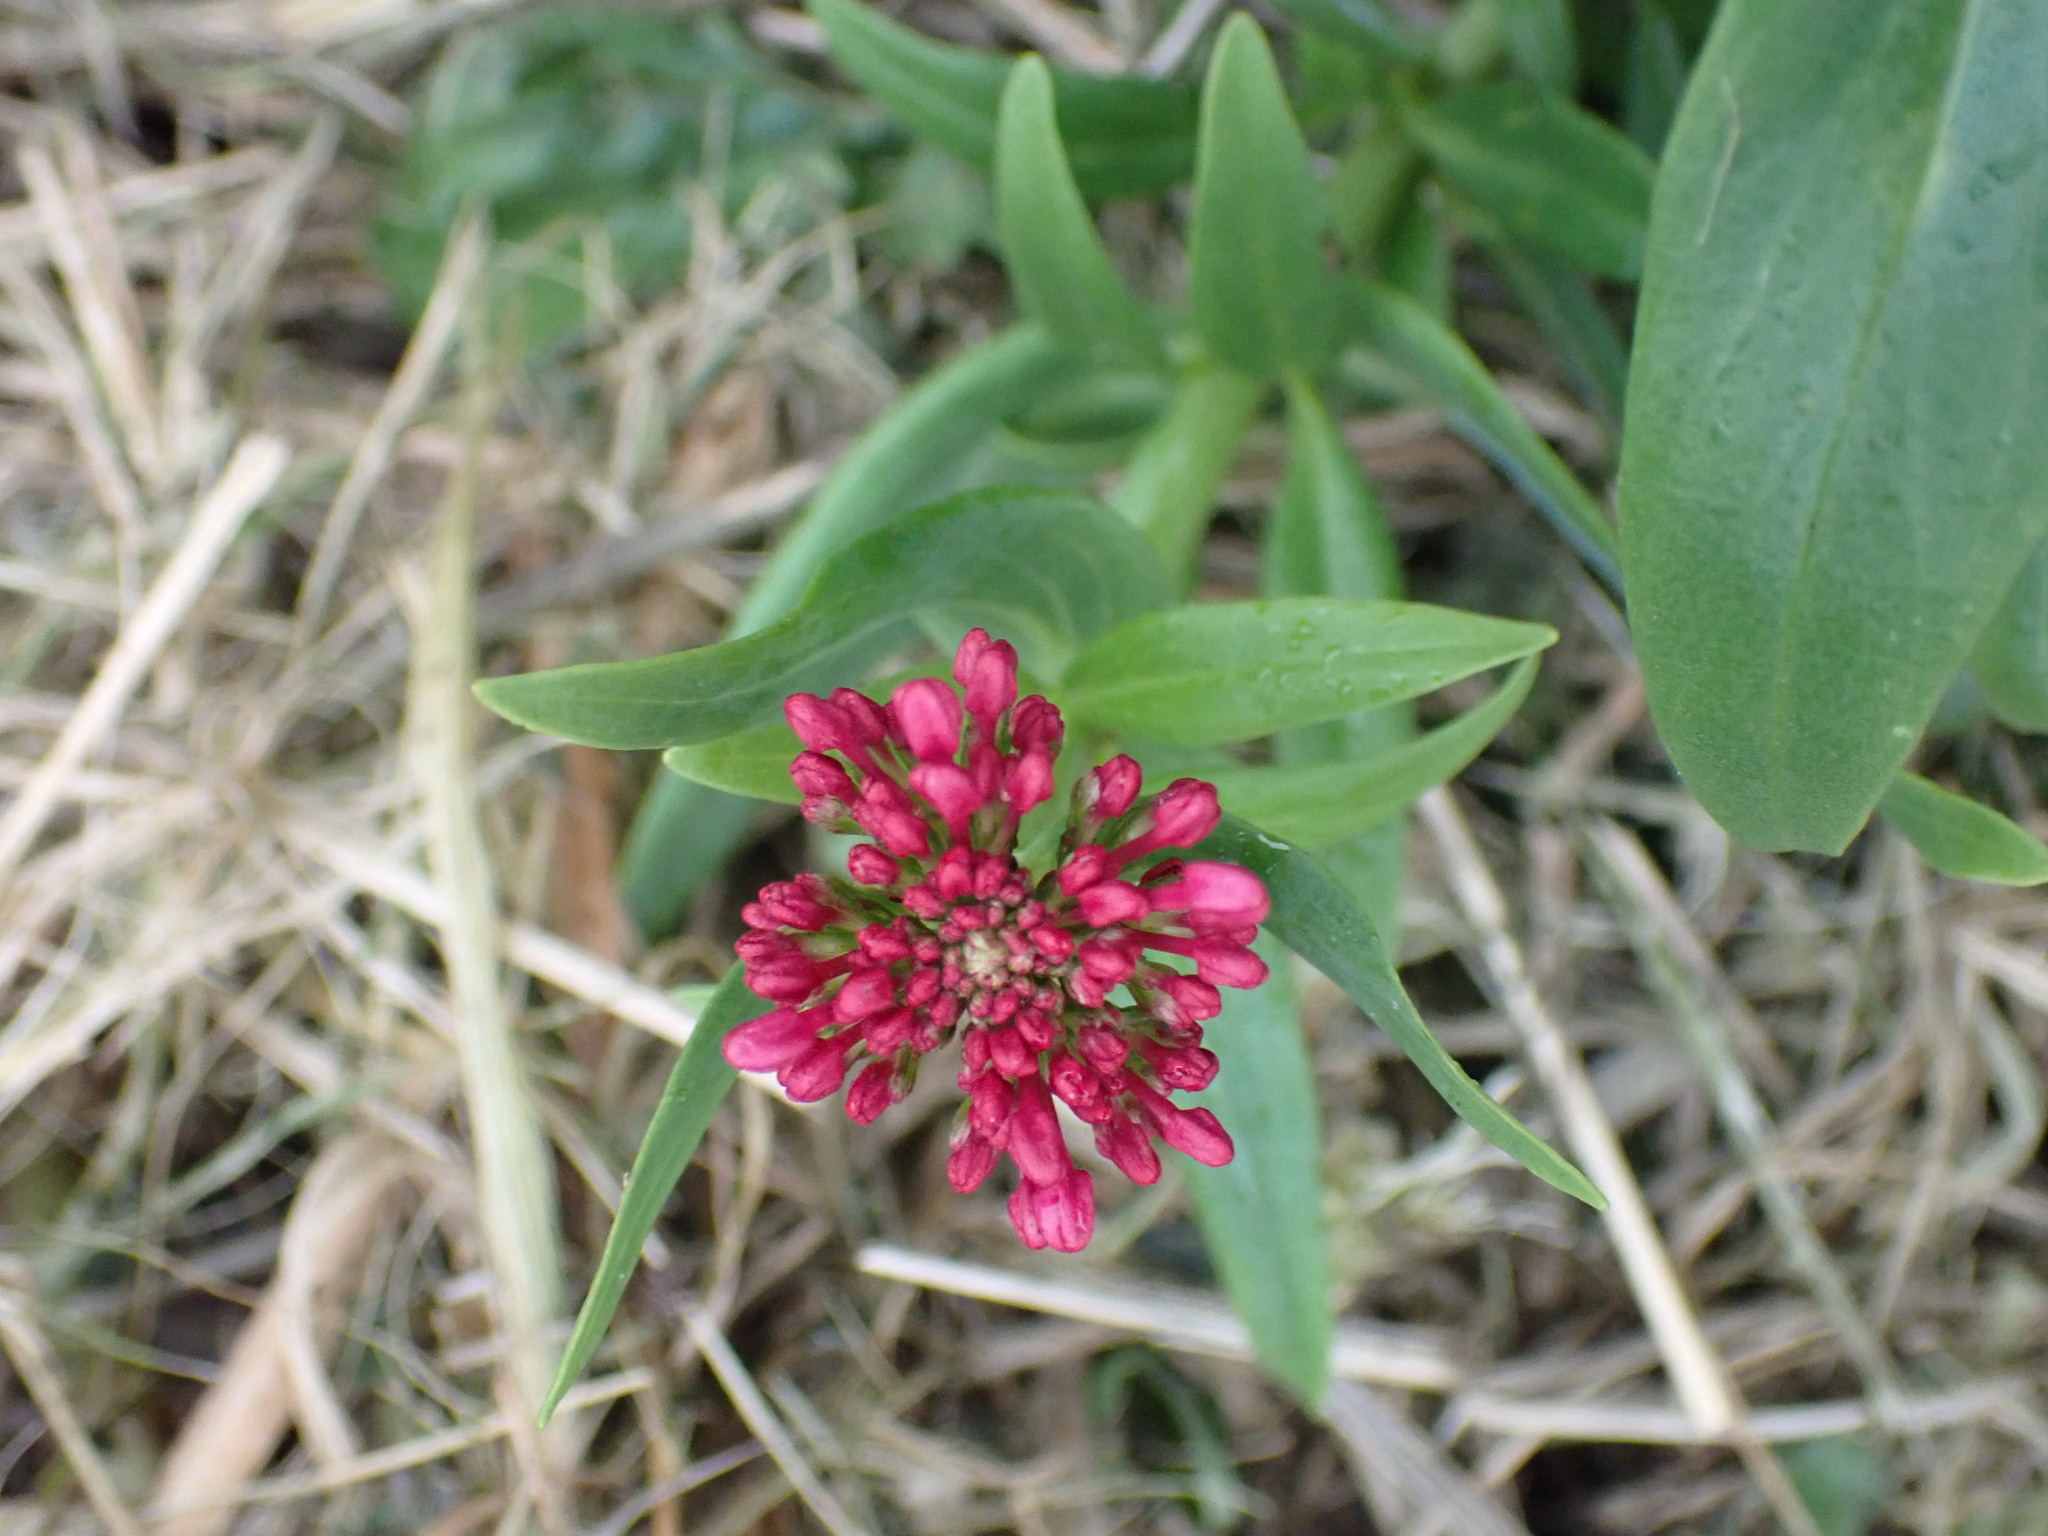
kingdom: Plantae
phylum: Tracheophyta
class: Magnoliopsida
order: Dipsacales
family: Caprifoliaceae
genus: Centranthus
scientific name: Centranthus ruber
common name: Red valerian
